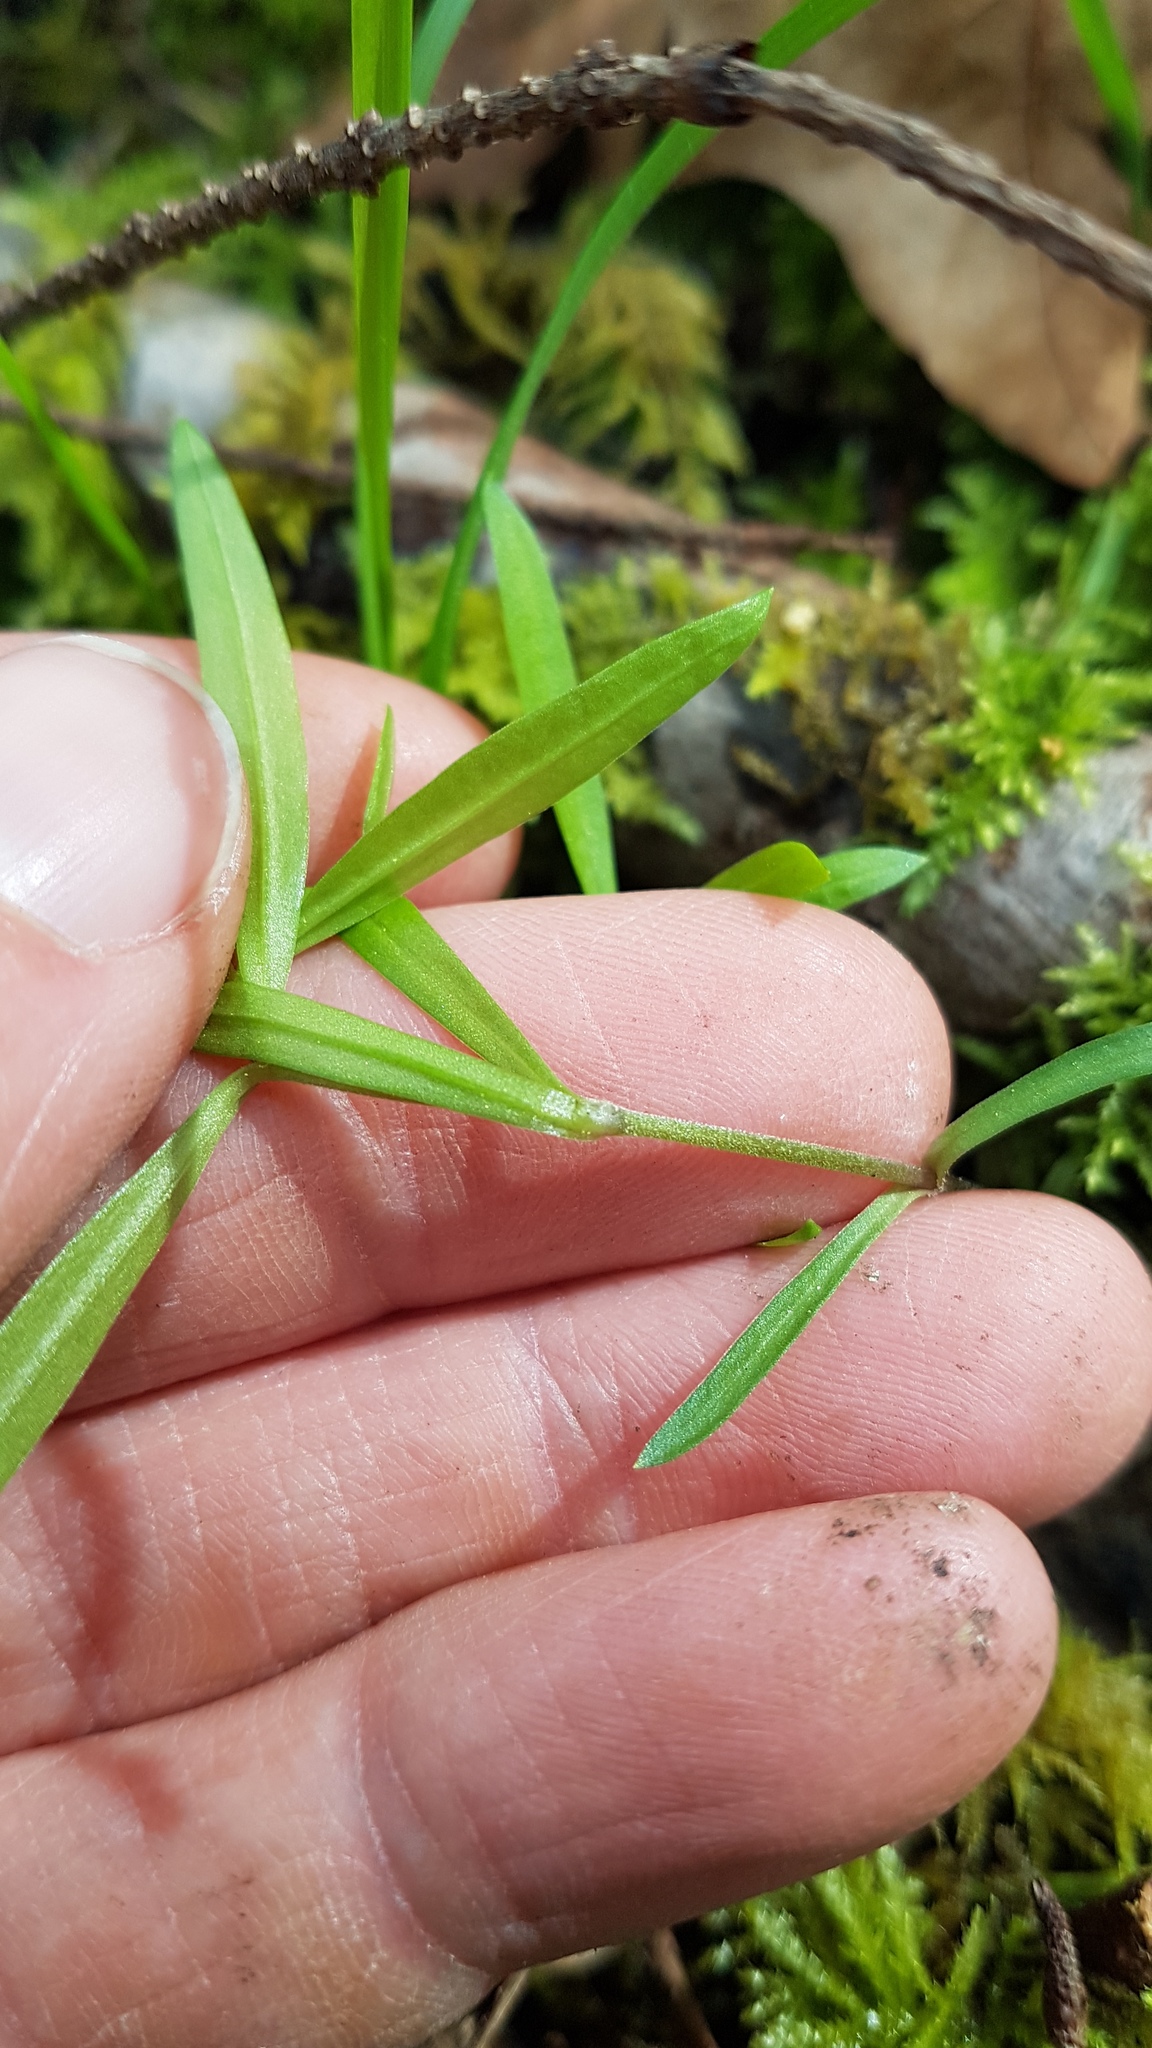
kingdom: Plantae
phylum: Tracheophyta
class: Magnoliopsida
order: Caryophyllales
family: Caryophyllaceae
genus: Moehringia
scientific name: Moehringia macrophylla
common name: Big-leaf sandwort
